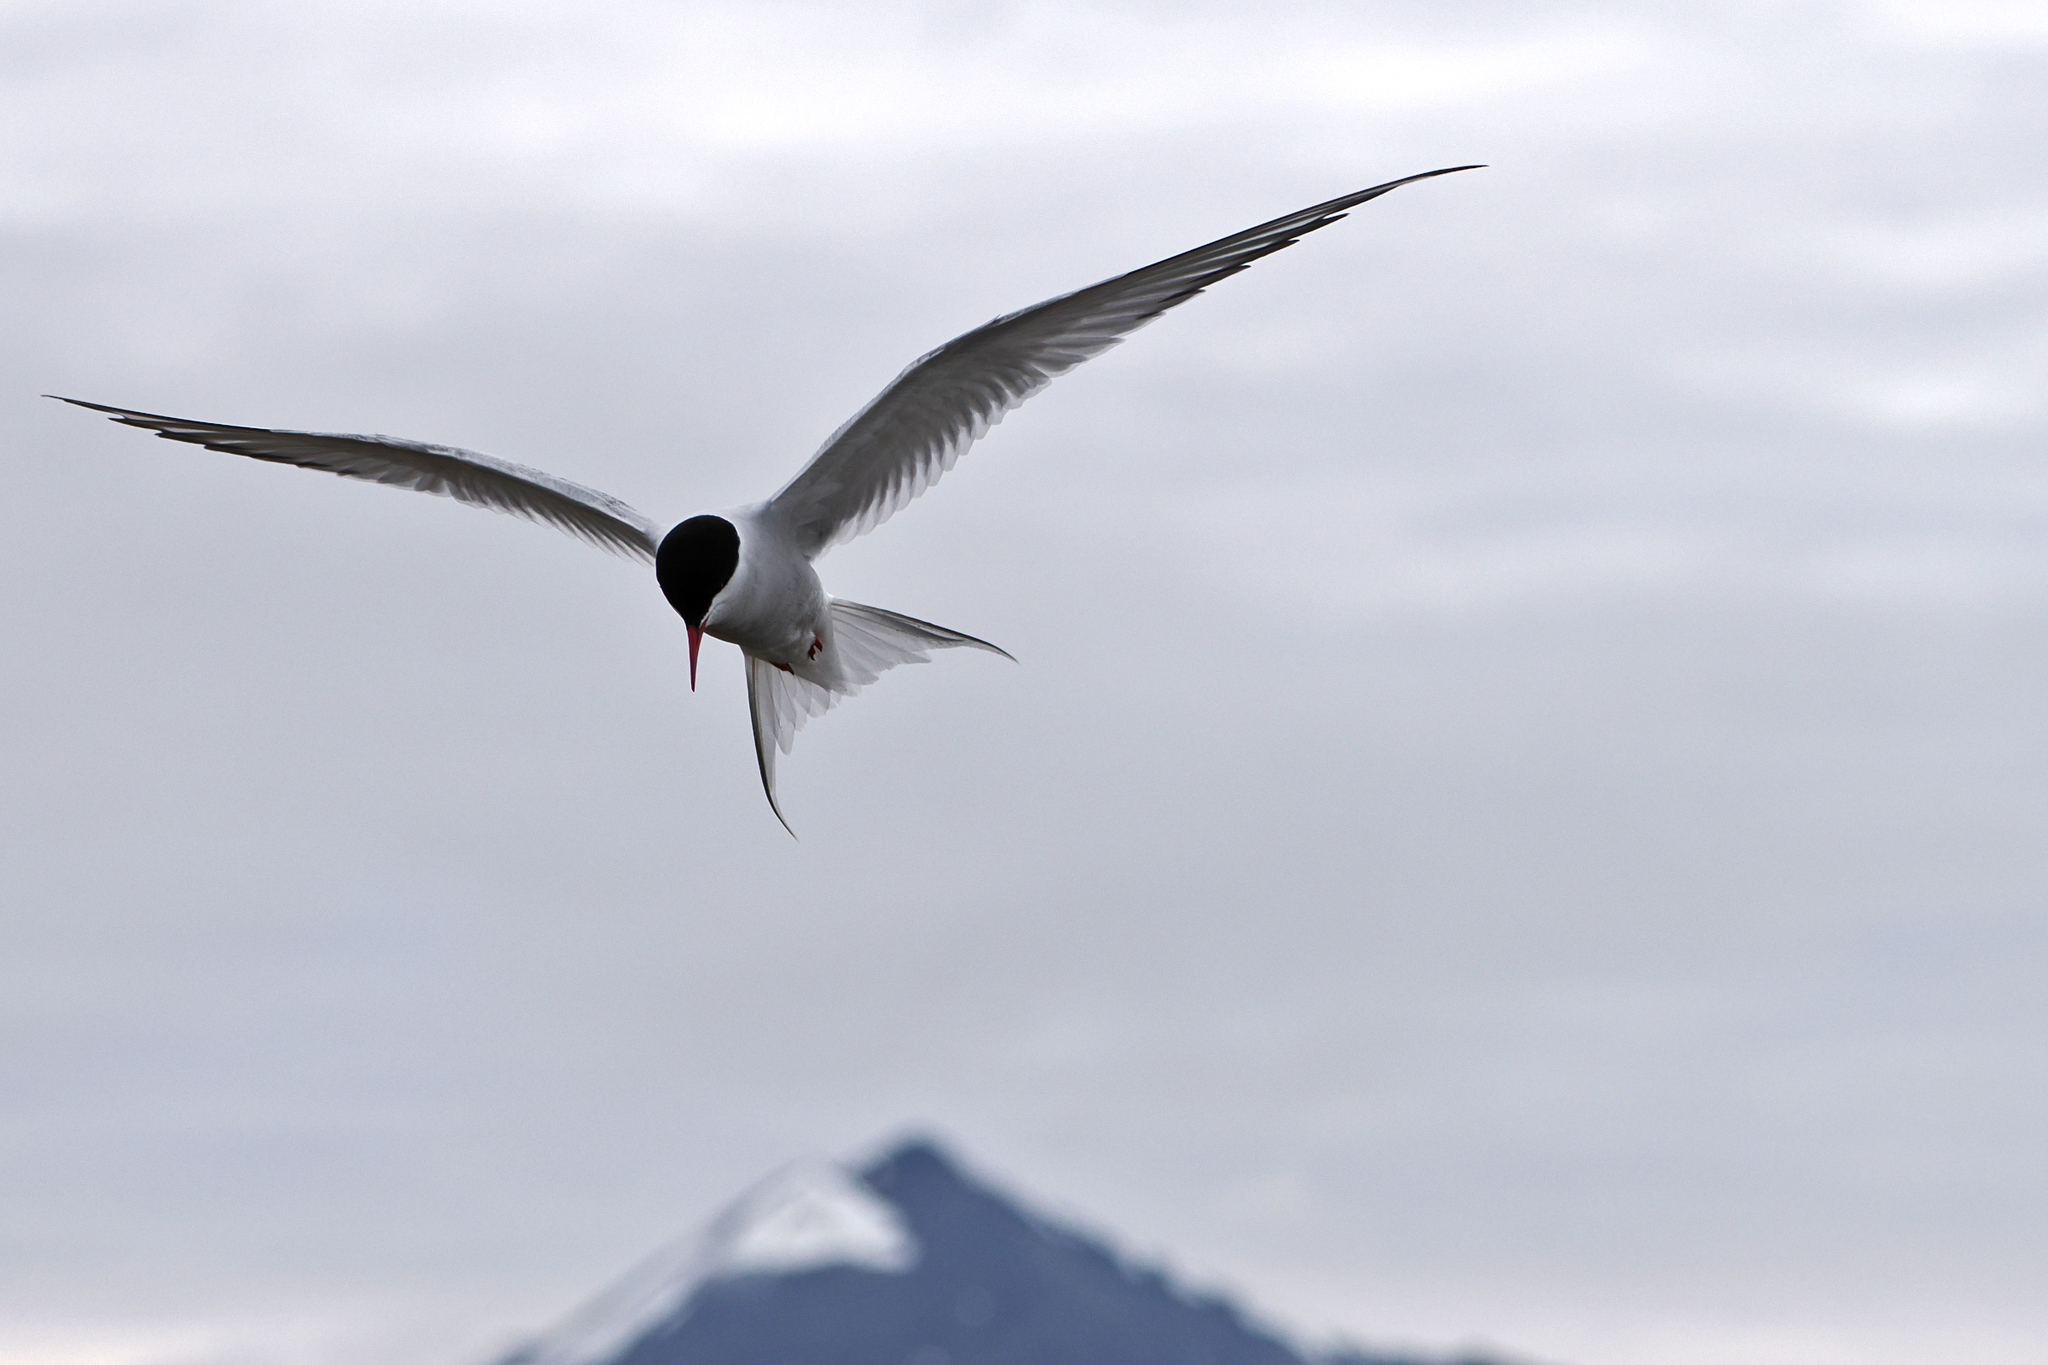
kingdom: Animalia
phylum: Chordata
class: Aves
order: Charadriiformes
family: Laridae
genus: Sterna
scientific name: Sterna paradisaea
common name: Arctic tern
